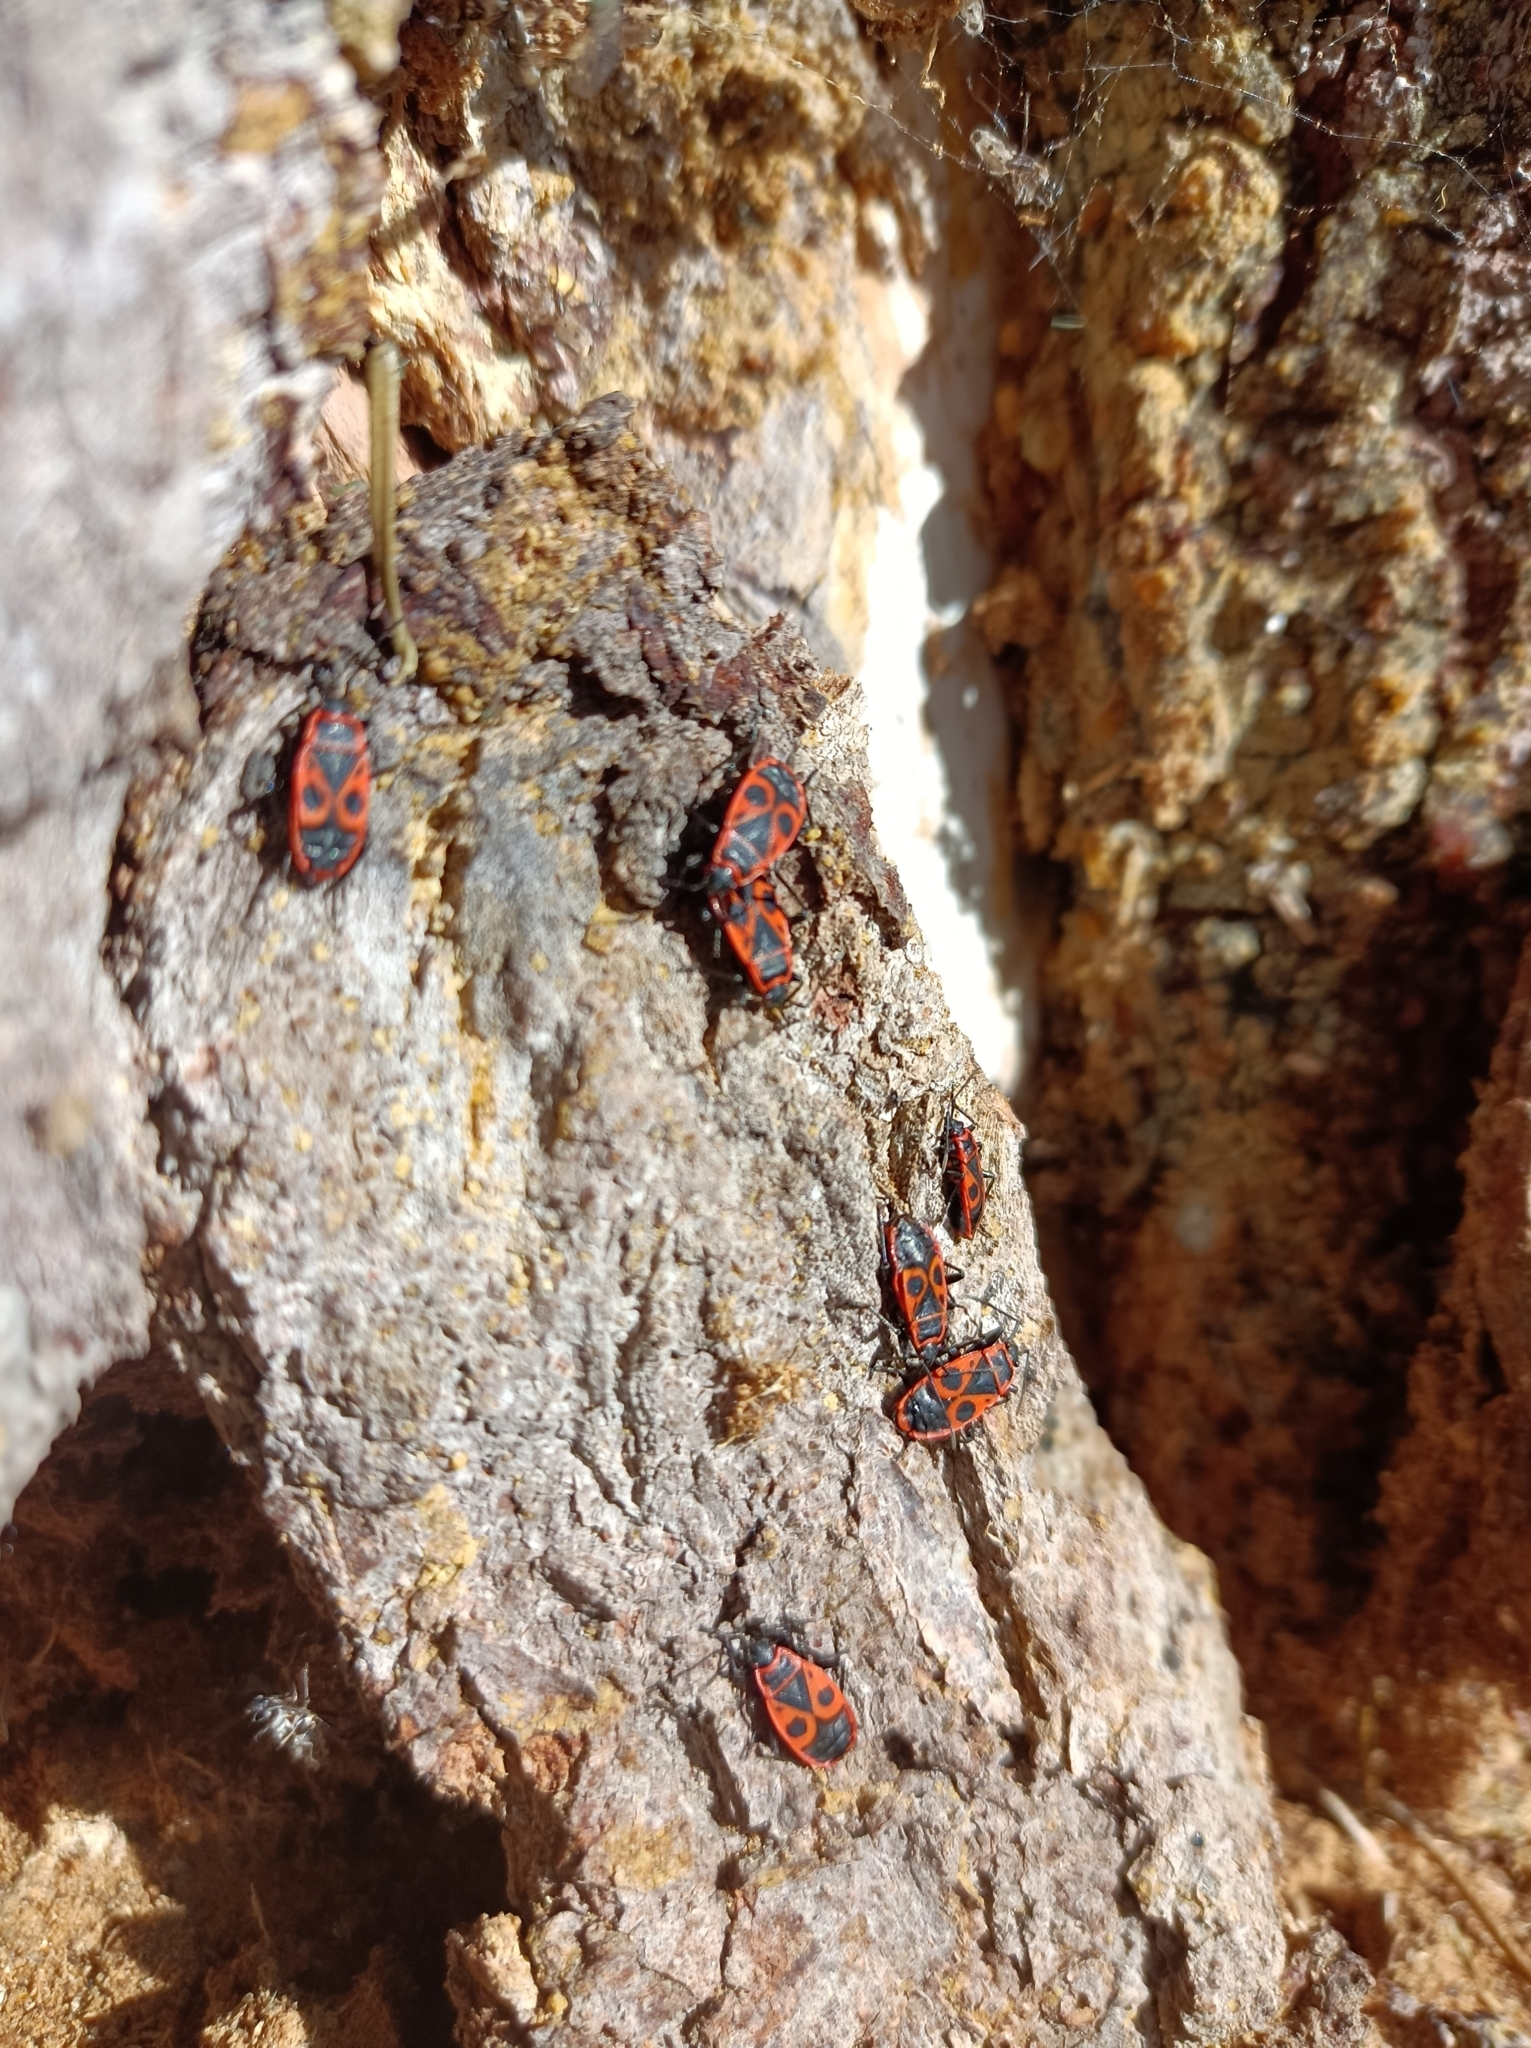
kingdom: Animalia
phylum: Arthropoda
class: Insecta
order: Hemiptera
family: Pyrrhocoridae
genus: Pyrrhocoris
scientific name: Pyrrhocoris apterus
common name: Firebug
